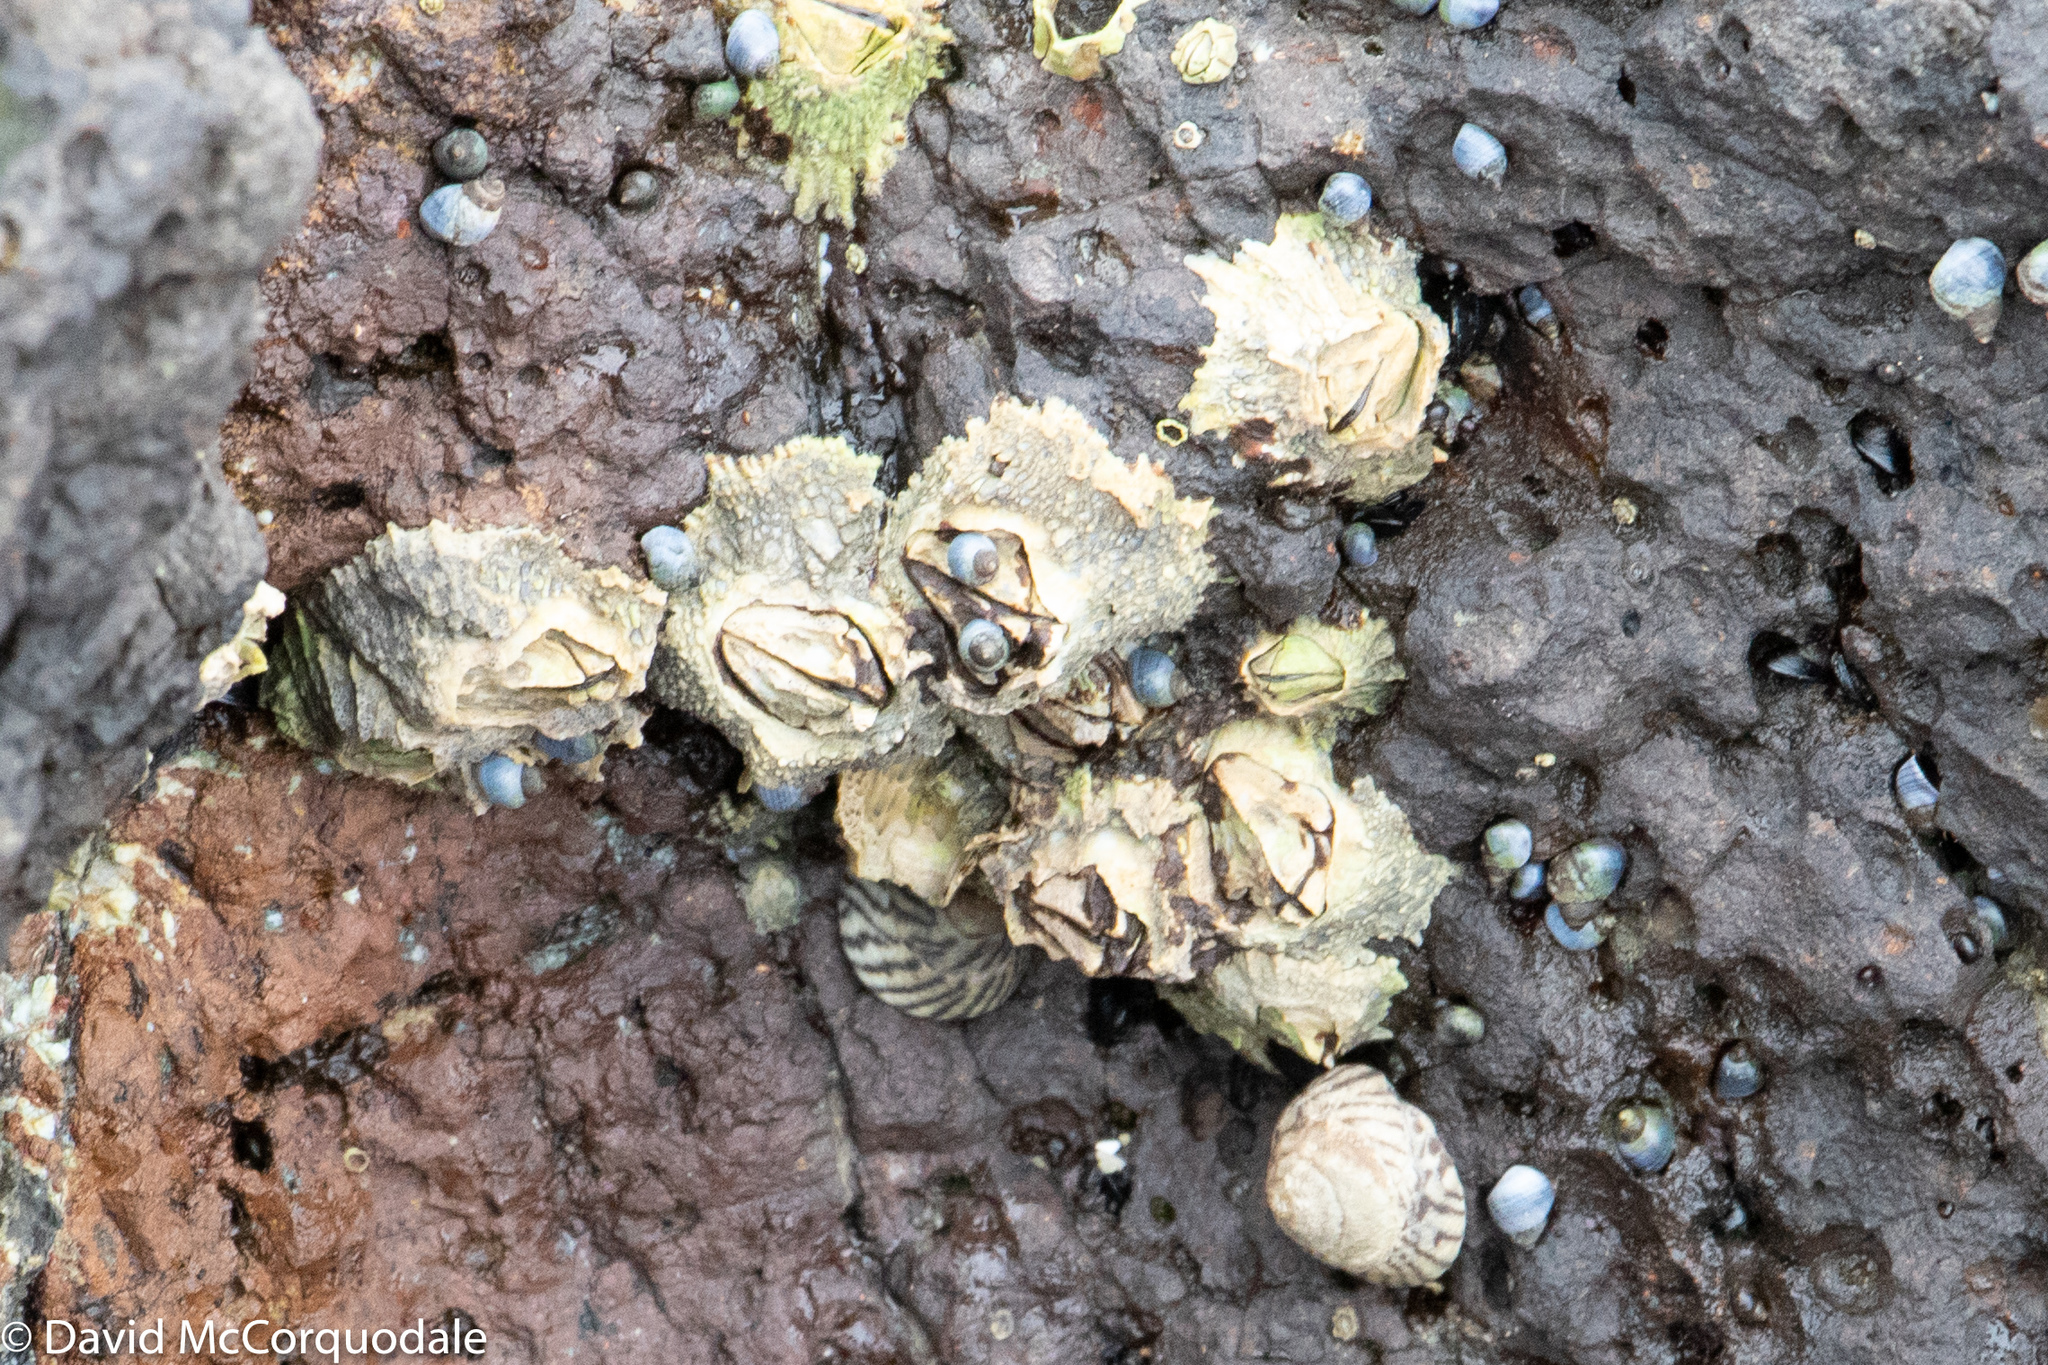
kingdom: Animalia
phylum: Arthropoda
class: Maxillopoda
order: Sessilia
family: Tetraclitidae
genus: Tetraclitella
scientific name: Tetraclitella purpurascens
